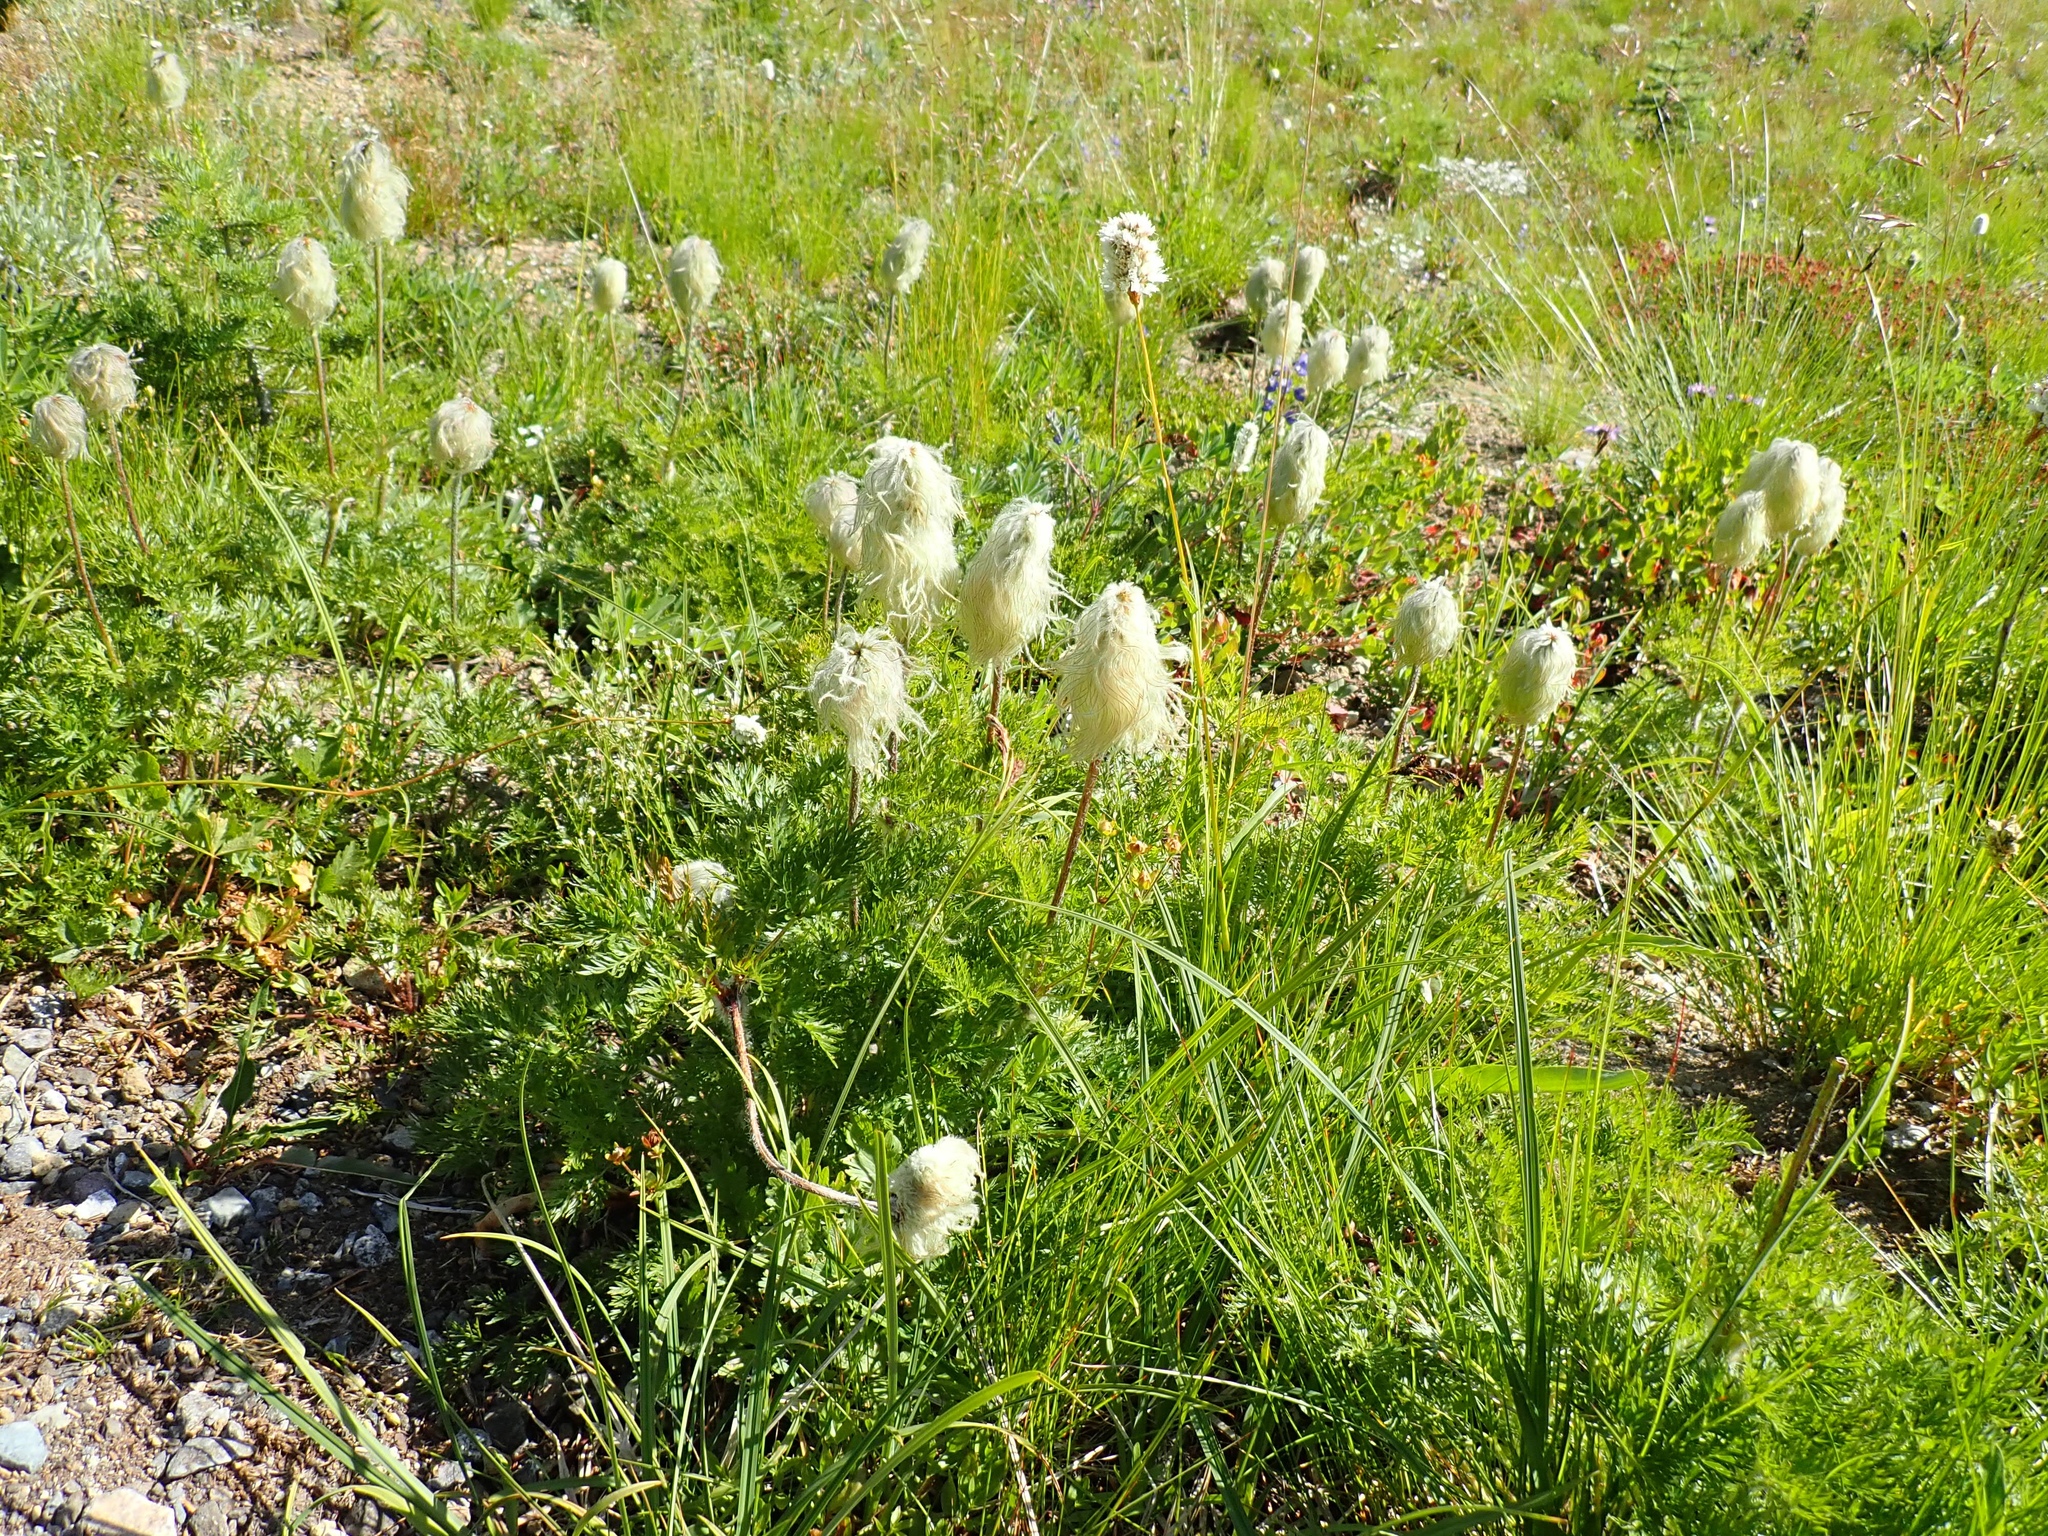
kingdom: Plantae
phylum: Tracheophyta
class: Magnoliopsida
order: Ranunculales
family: Ranunculaceae
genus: Pulsatilla
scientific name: Pulsatilla occidentalis
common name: Mountain pasqueflower
